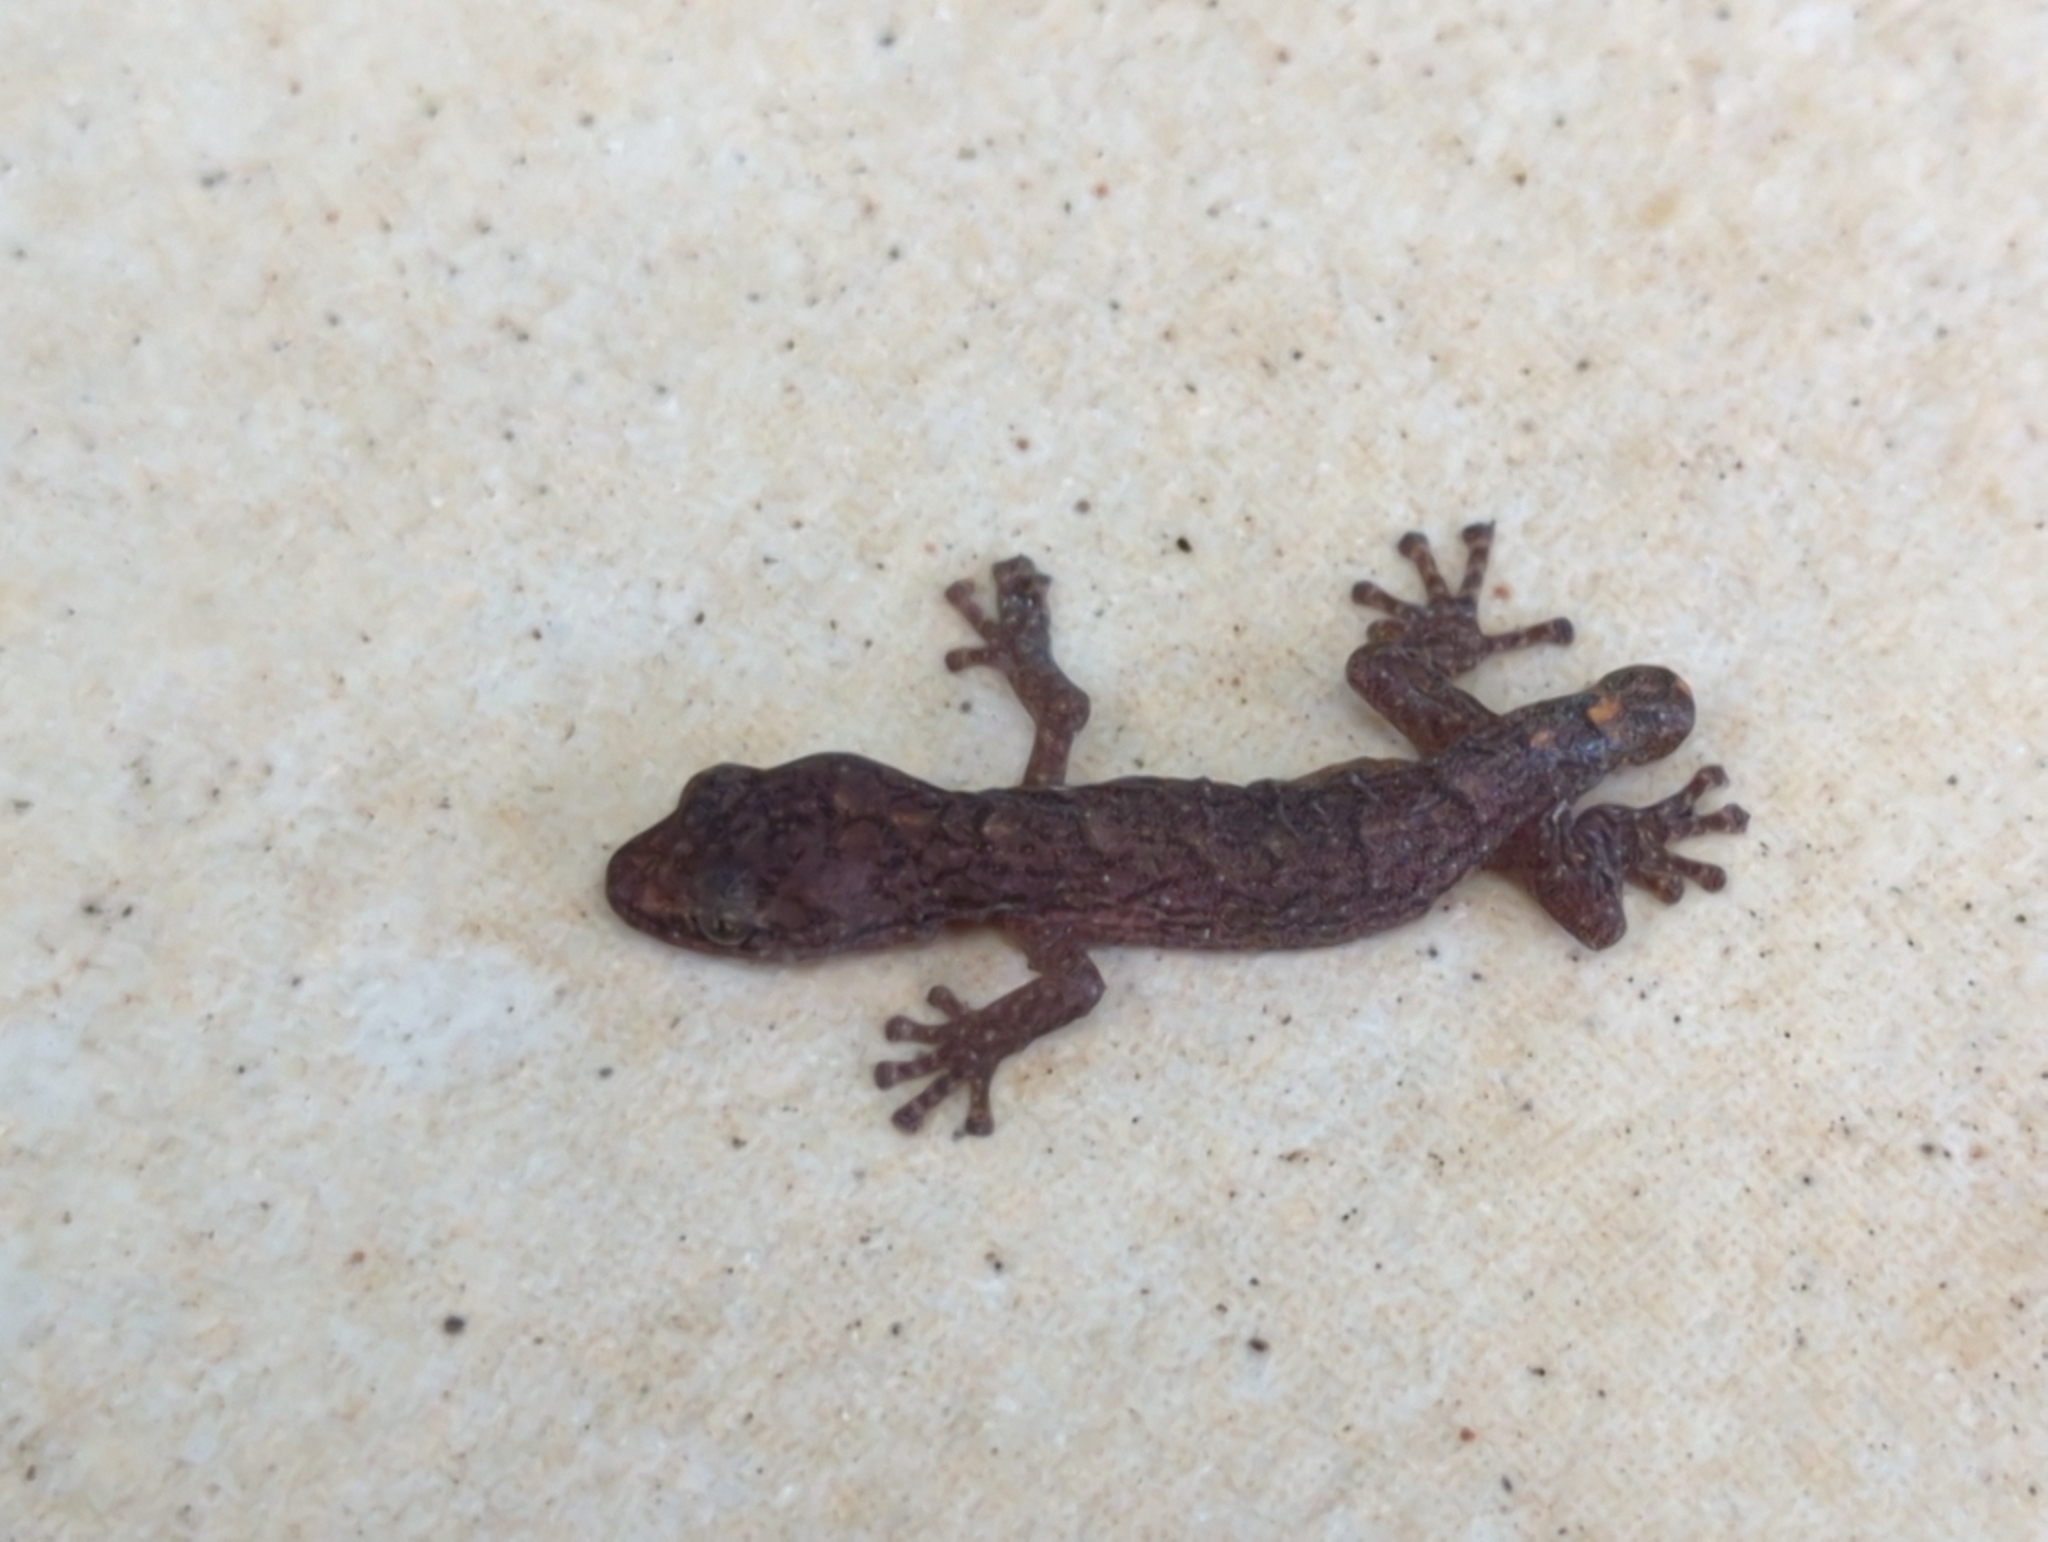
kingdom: Animalia
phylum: Chordata
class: Squamata
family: Gekkonidae
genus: Christinus
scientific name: Christinus marmoratus
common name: Marbled gecko
